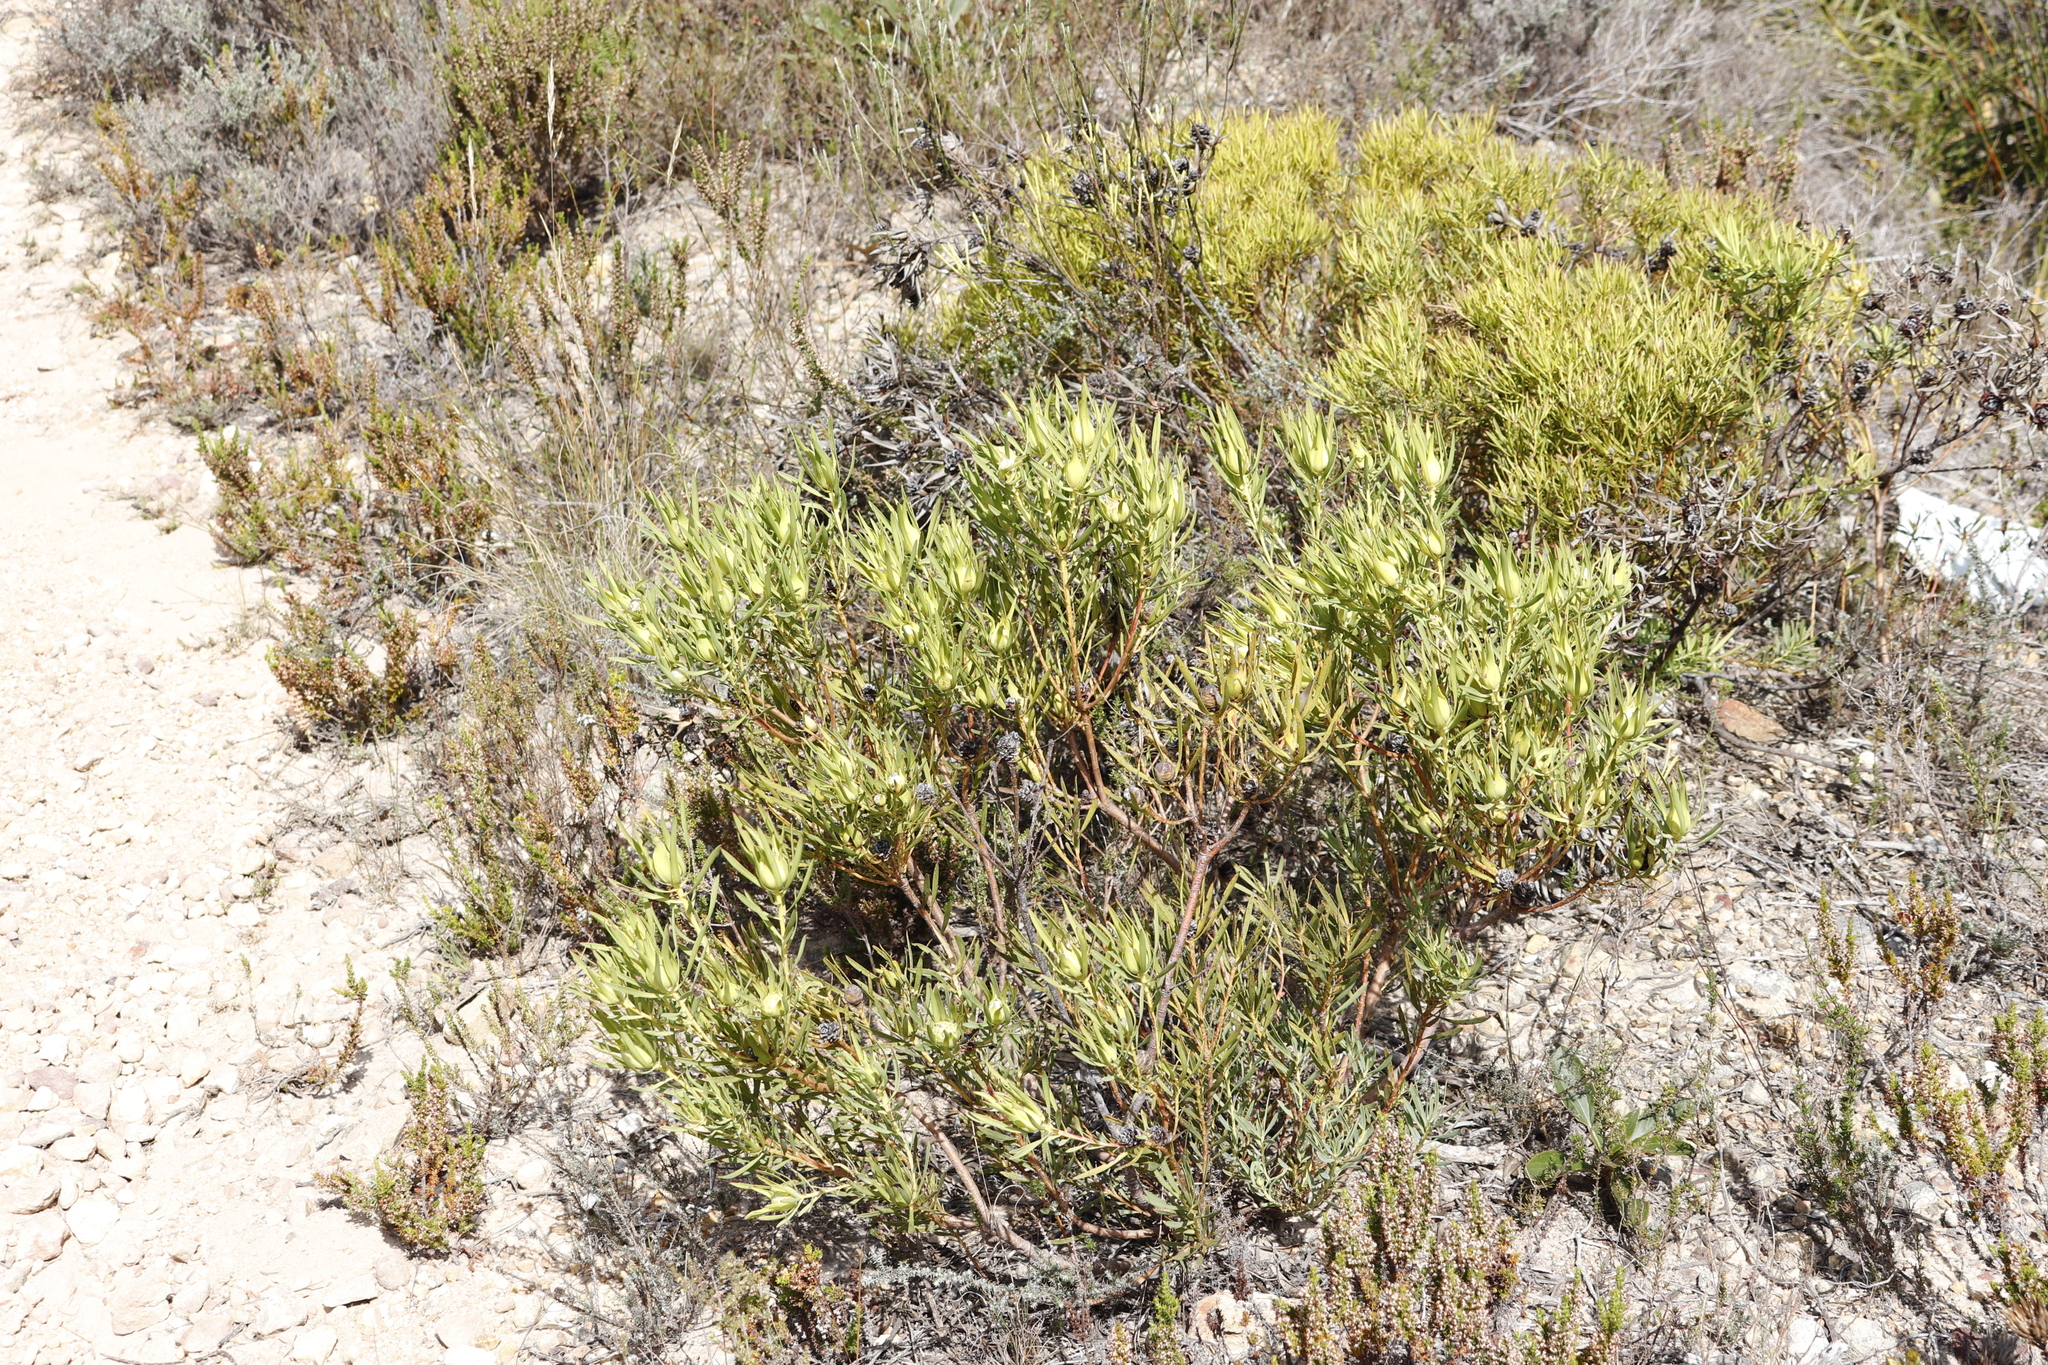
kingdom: Plantae
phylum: Tracheophyta
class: Magnoliopsida
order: Proteales
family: Proteaceae
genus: Leucadendron
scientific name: Leucadendron salignum
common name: Common sunshine conebush
